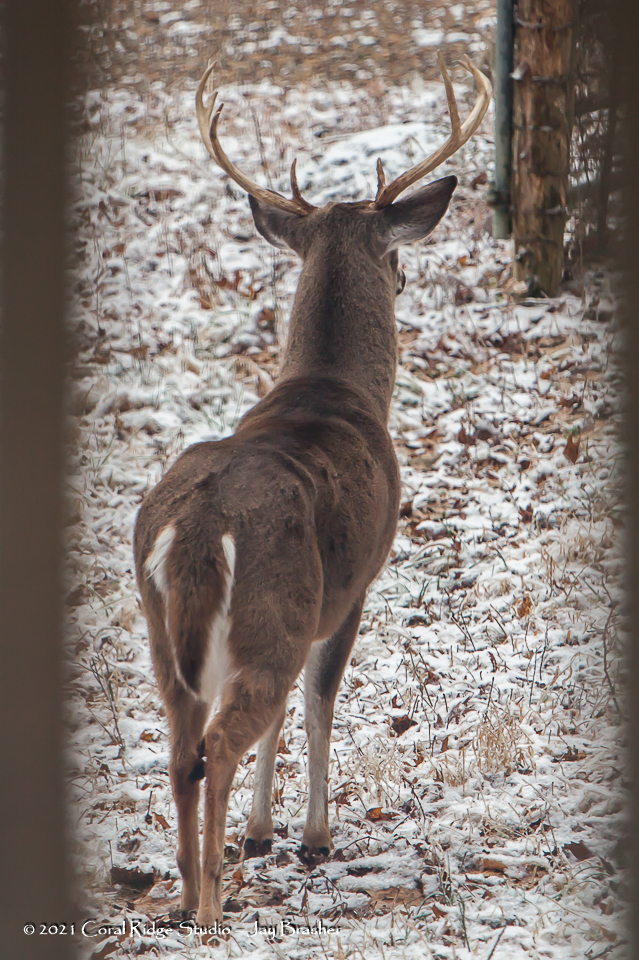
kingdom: Animalia
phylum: Chordata
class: Mammalia
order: Artiodactyla
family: Cervidae
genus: Odocoileus
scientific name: Odocoileus virginianus
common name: White-tailed deer
